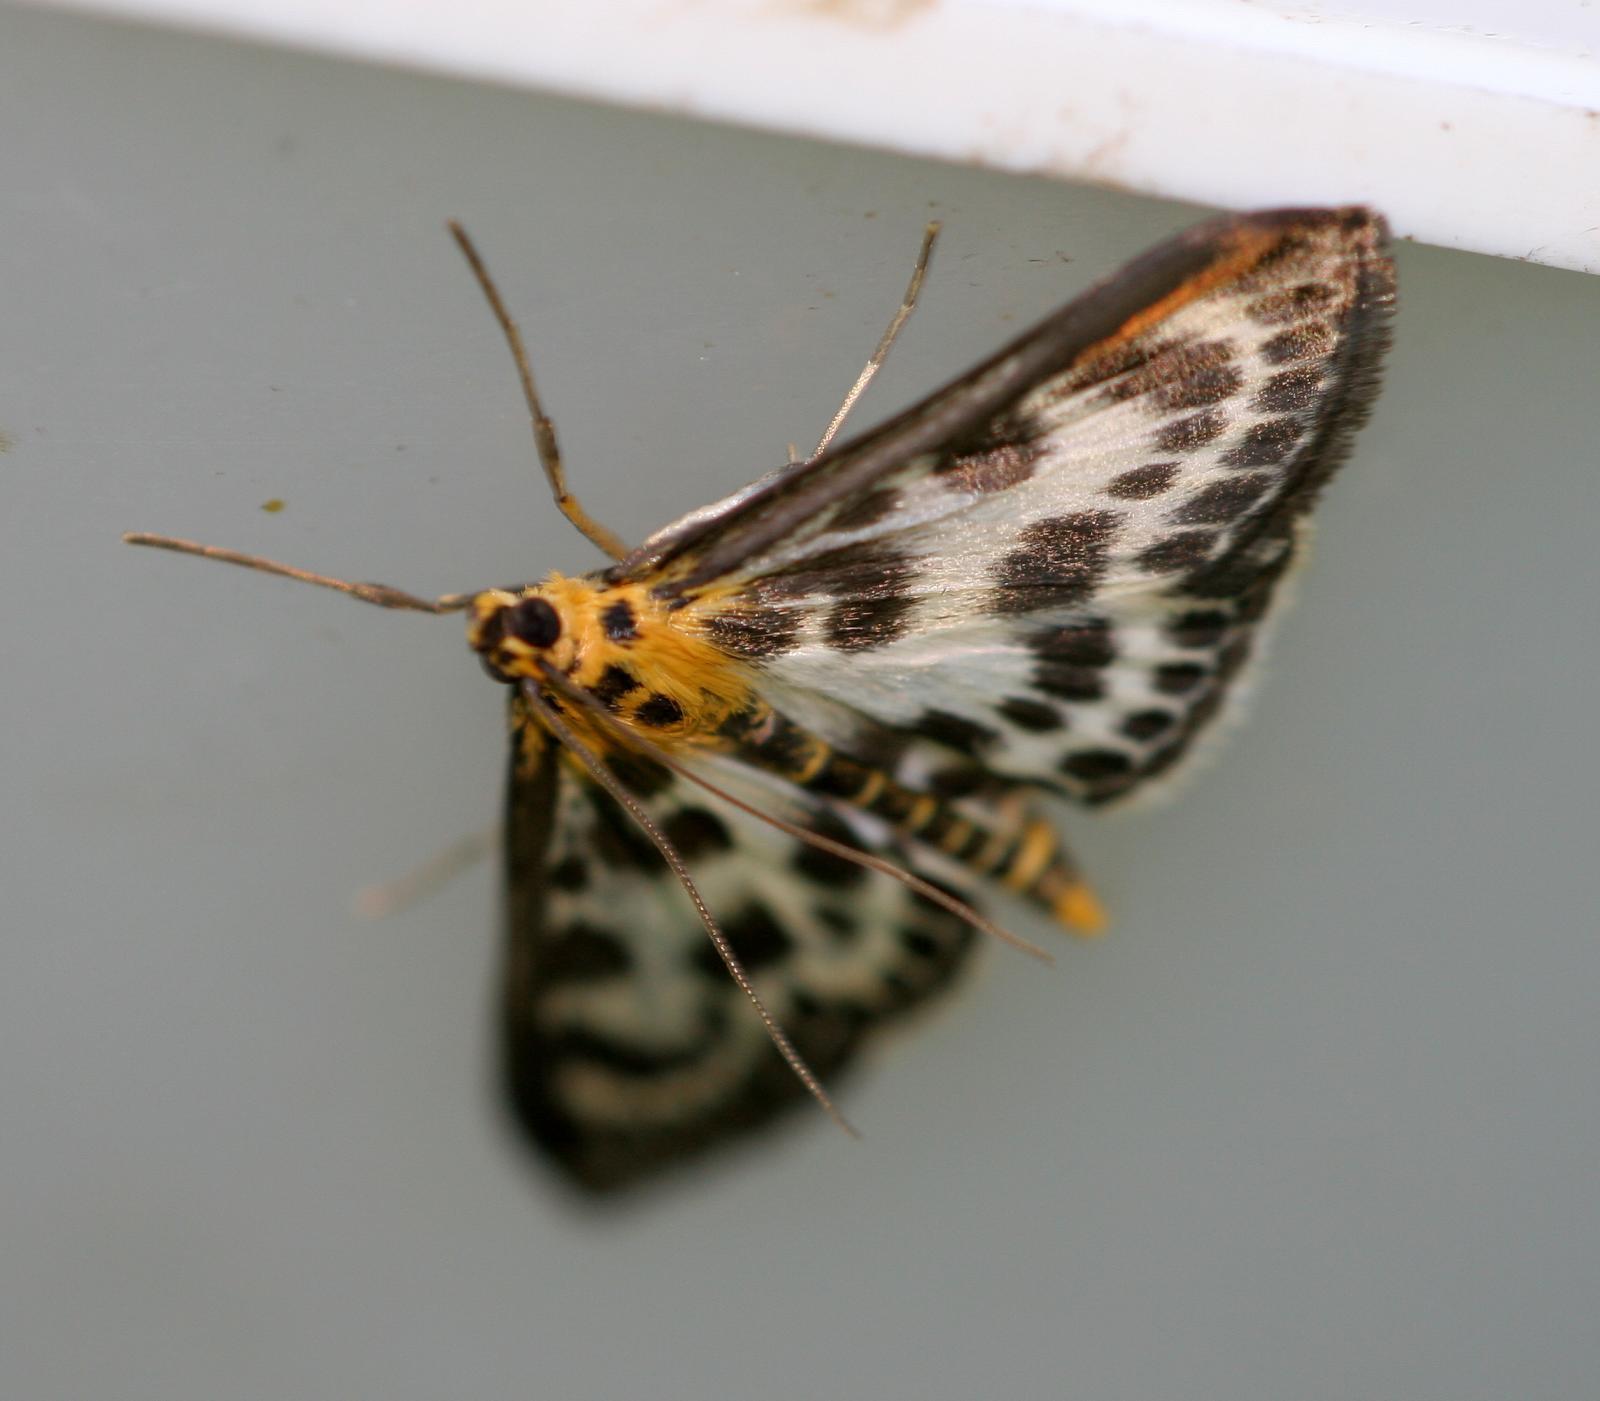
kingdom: Animalia
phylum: Arthropoda
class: Insecta
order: Lepidoptera
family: Crambidae
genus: Anania
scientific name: Anania hortulata
